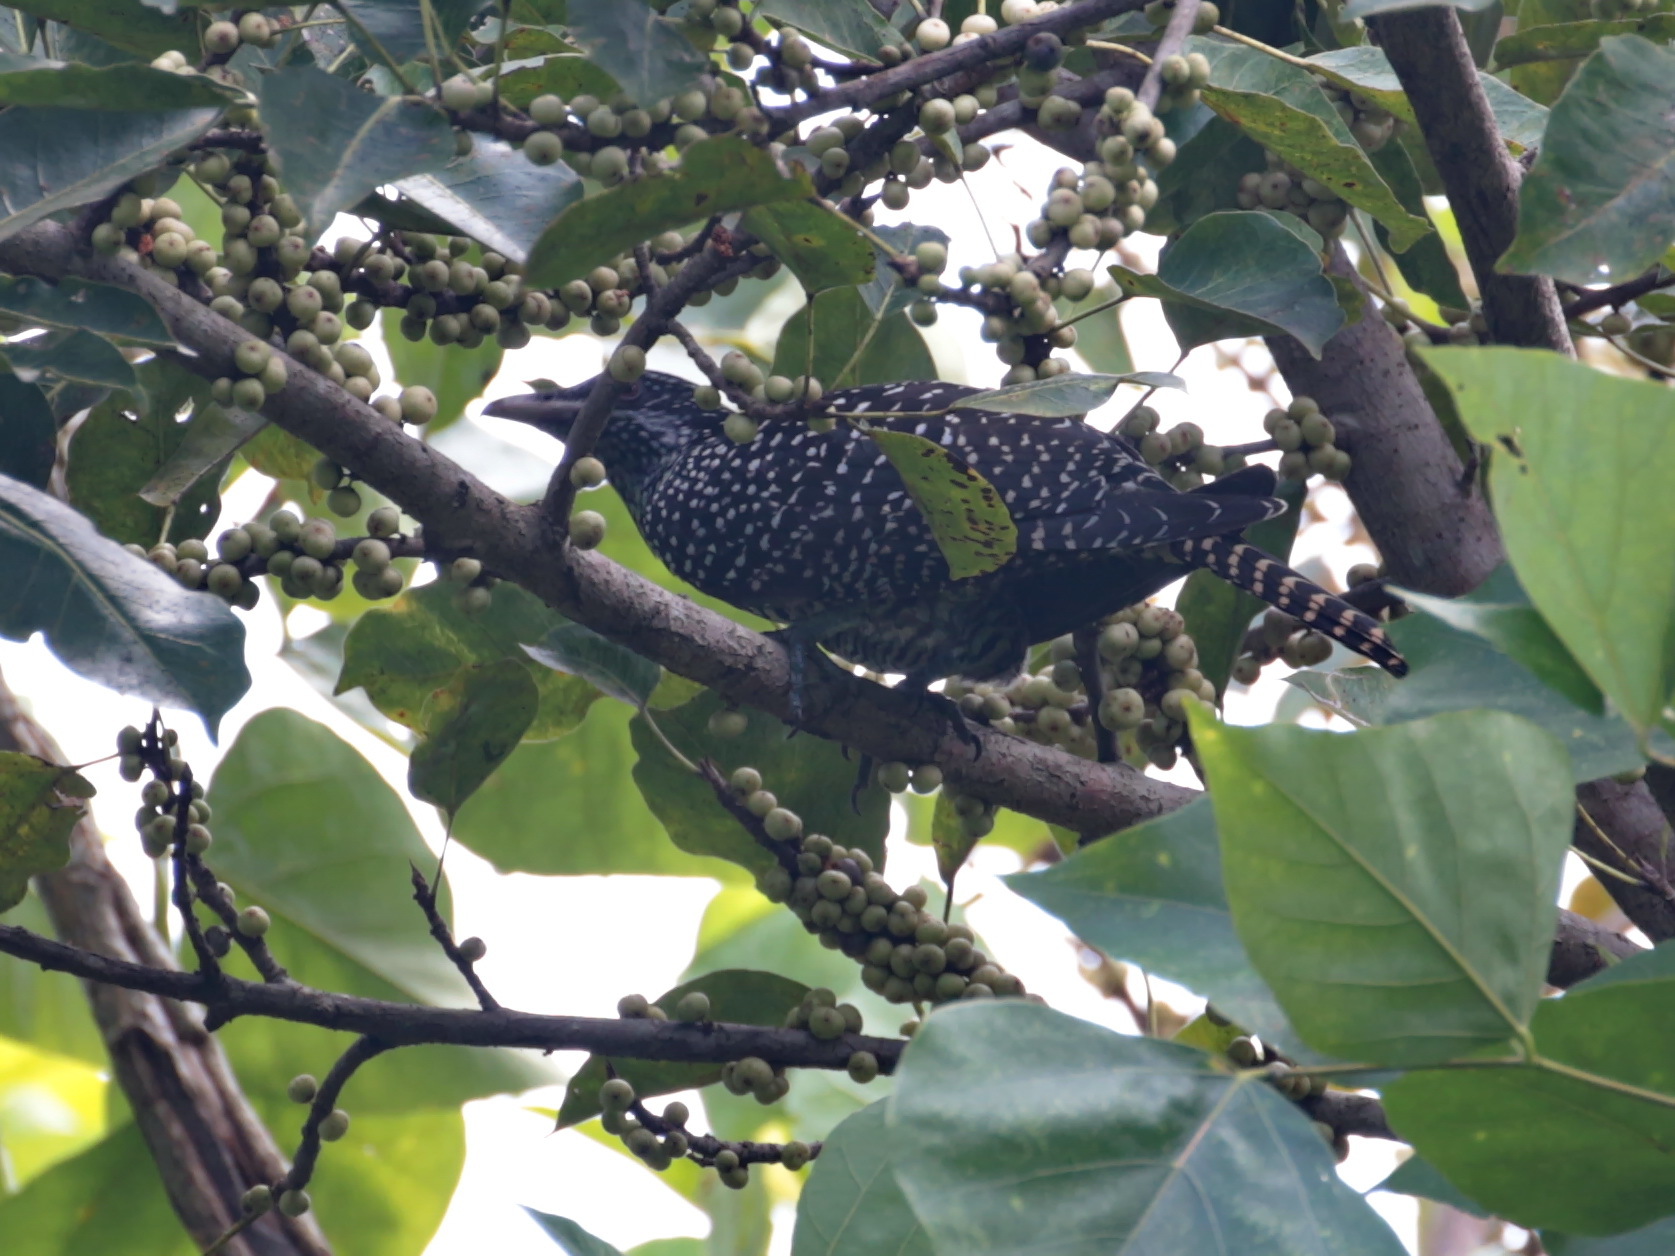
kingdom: Animalia
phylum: Chordata
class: Aves
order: Cuculiformes
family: Cuculidae
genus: Eudynamys
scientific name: Eudynamys scolopaceus
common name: Asian koel
